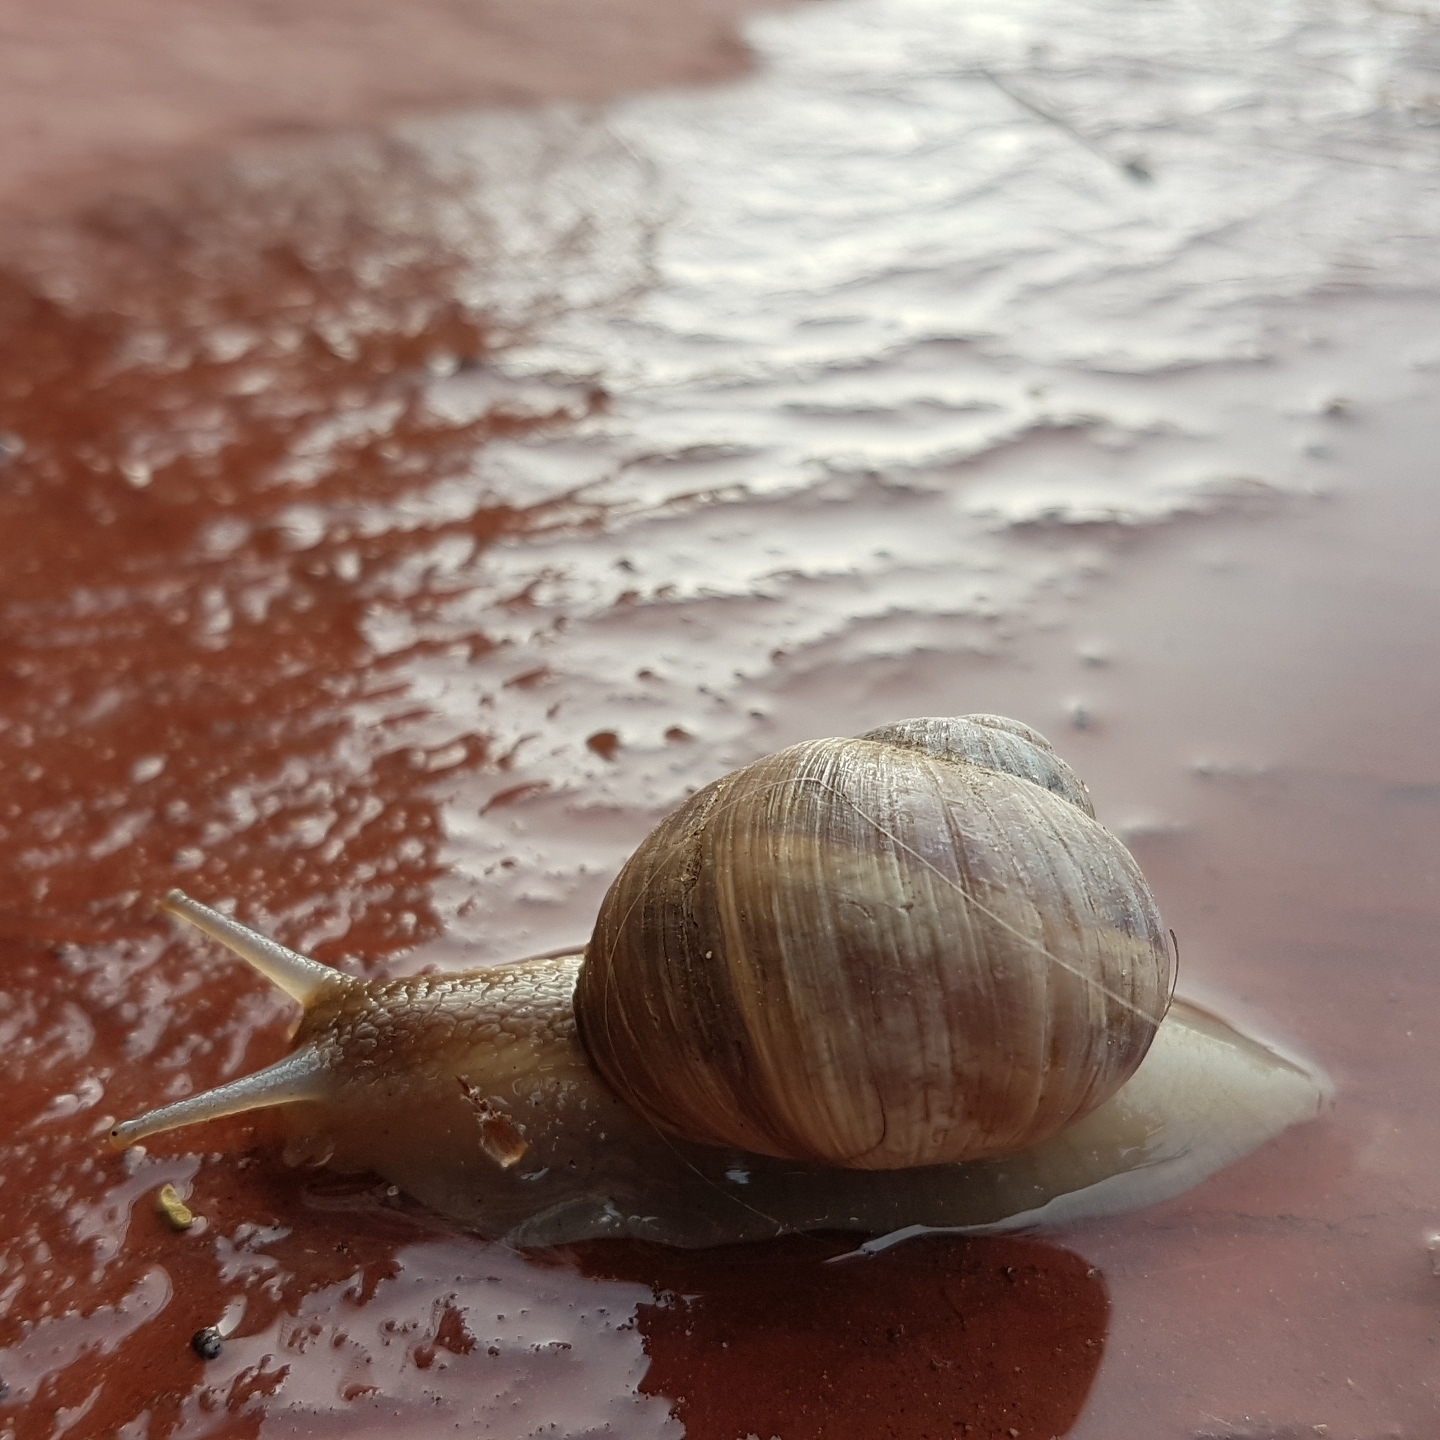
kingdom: Animalia
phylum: Mollusca
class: Gastropoda
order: Stylommatophora
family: Helicidae
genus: Helix
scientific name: Helix melanostoma
